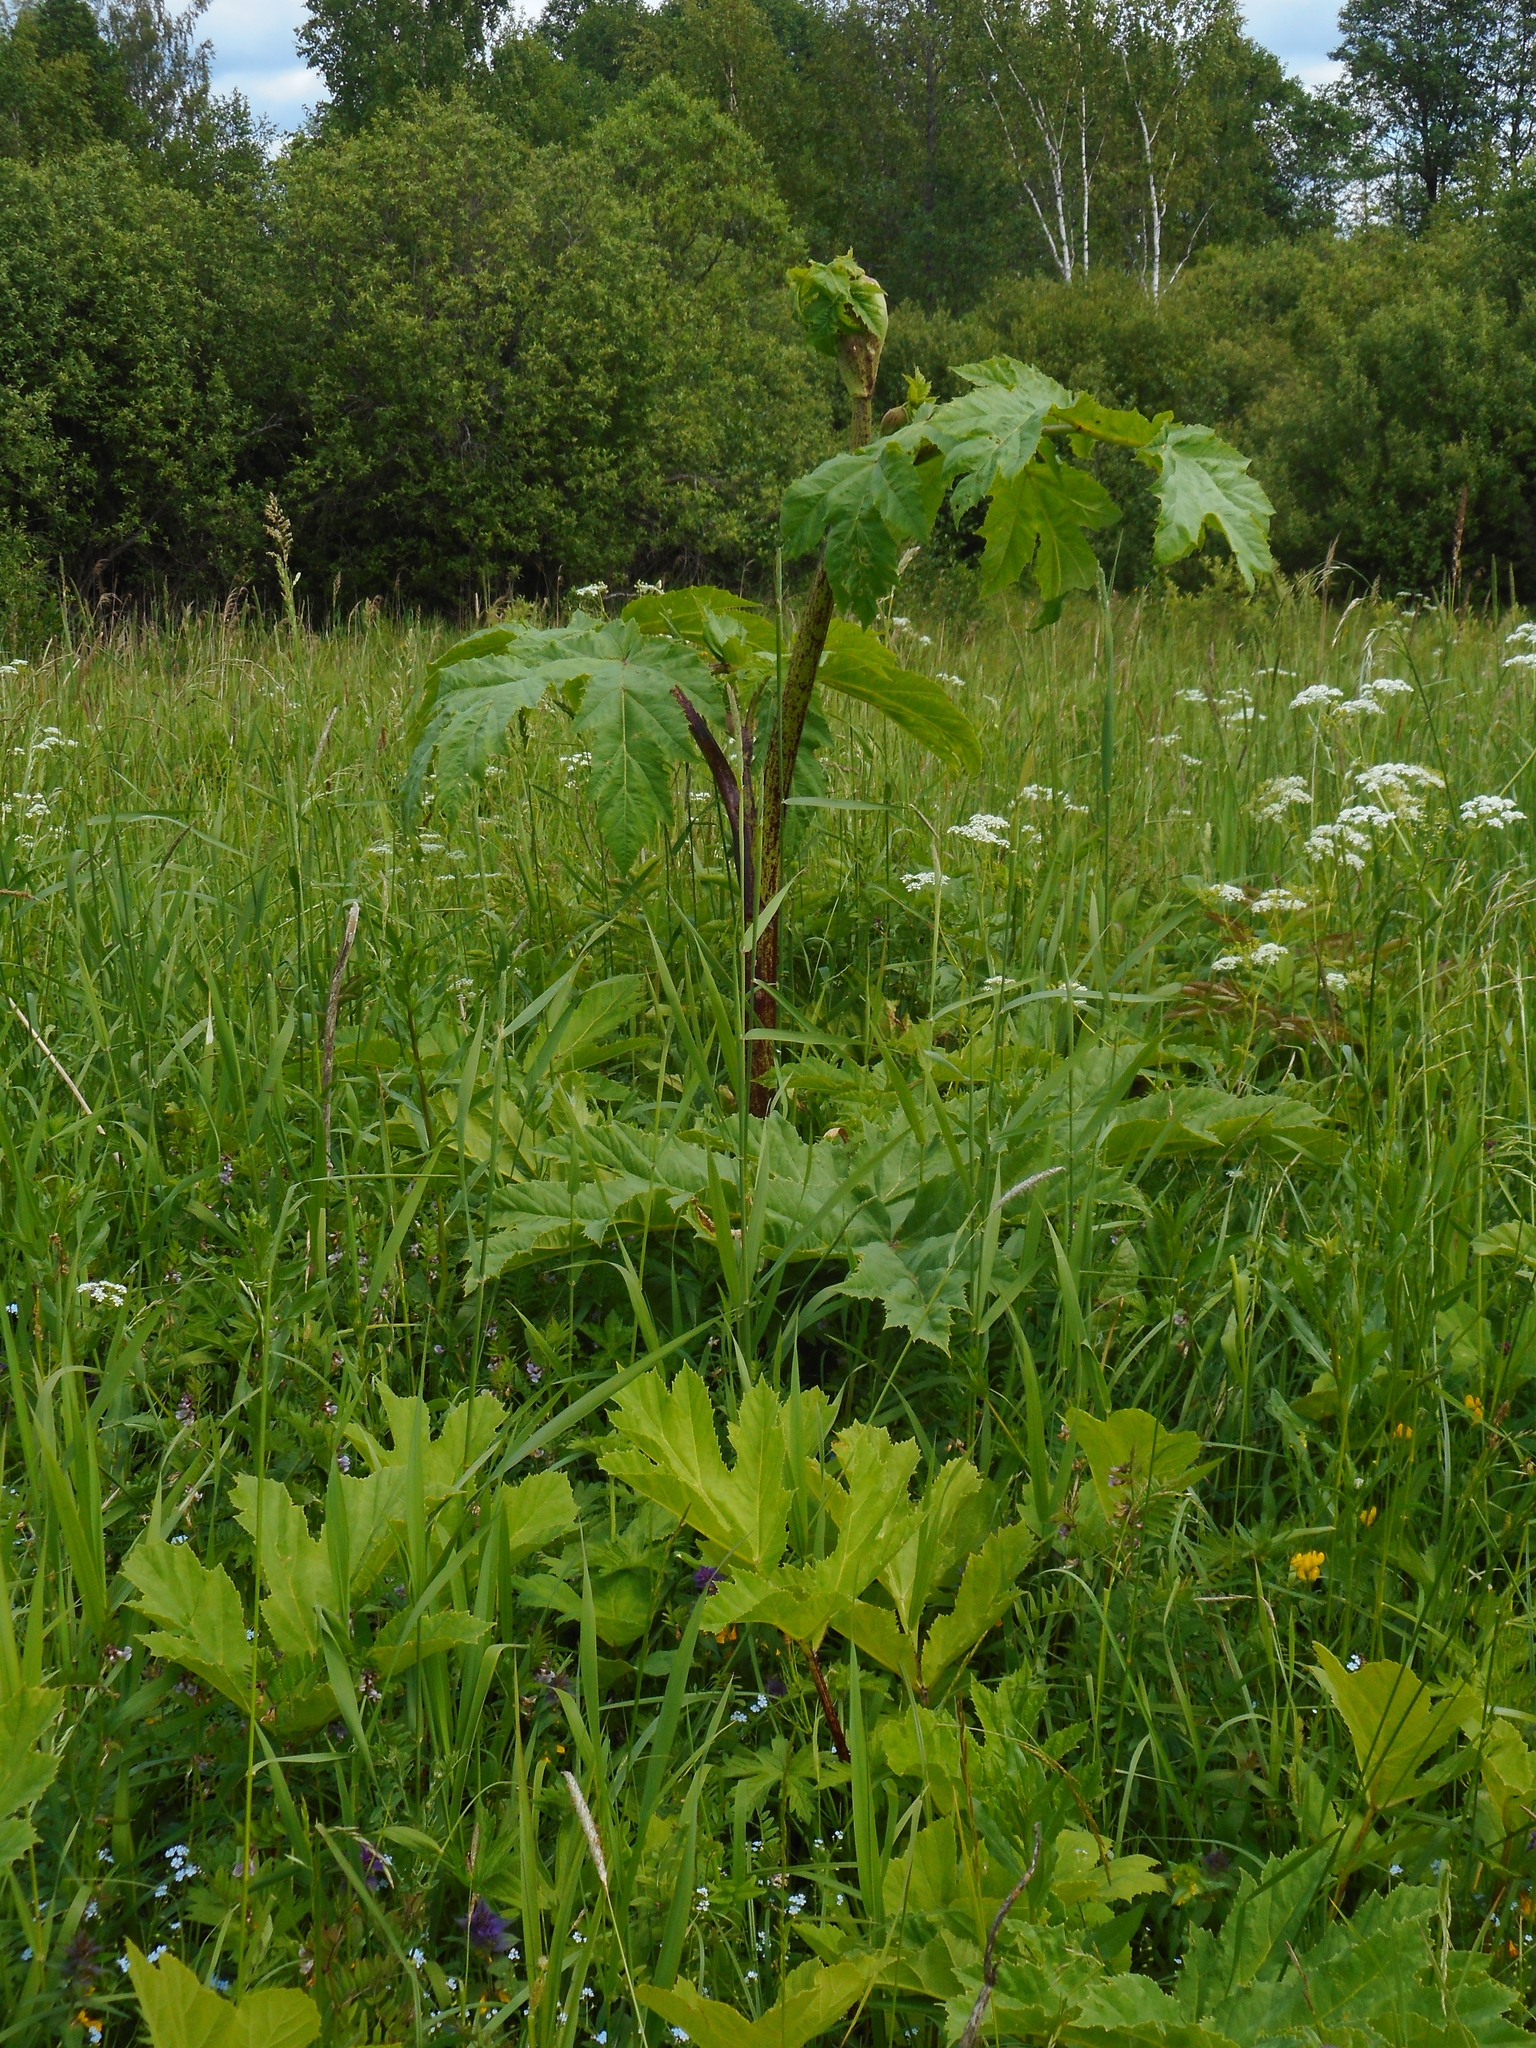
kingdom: Plantae
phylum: Tracheophyta
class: Magnoliopsida
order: Apiales
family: Apiaceae
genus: Heracleum
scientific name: Heracleum sosnowskyi
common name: Sosnowsky's hogweed
